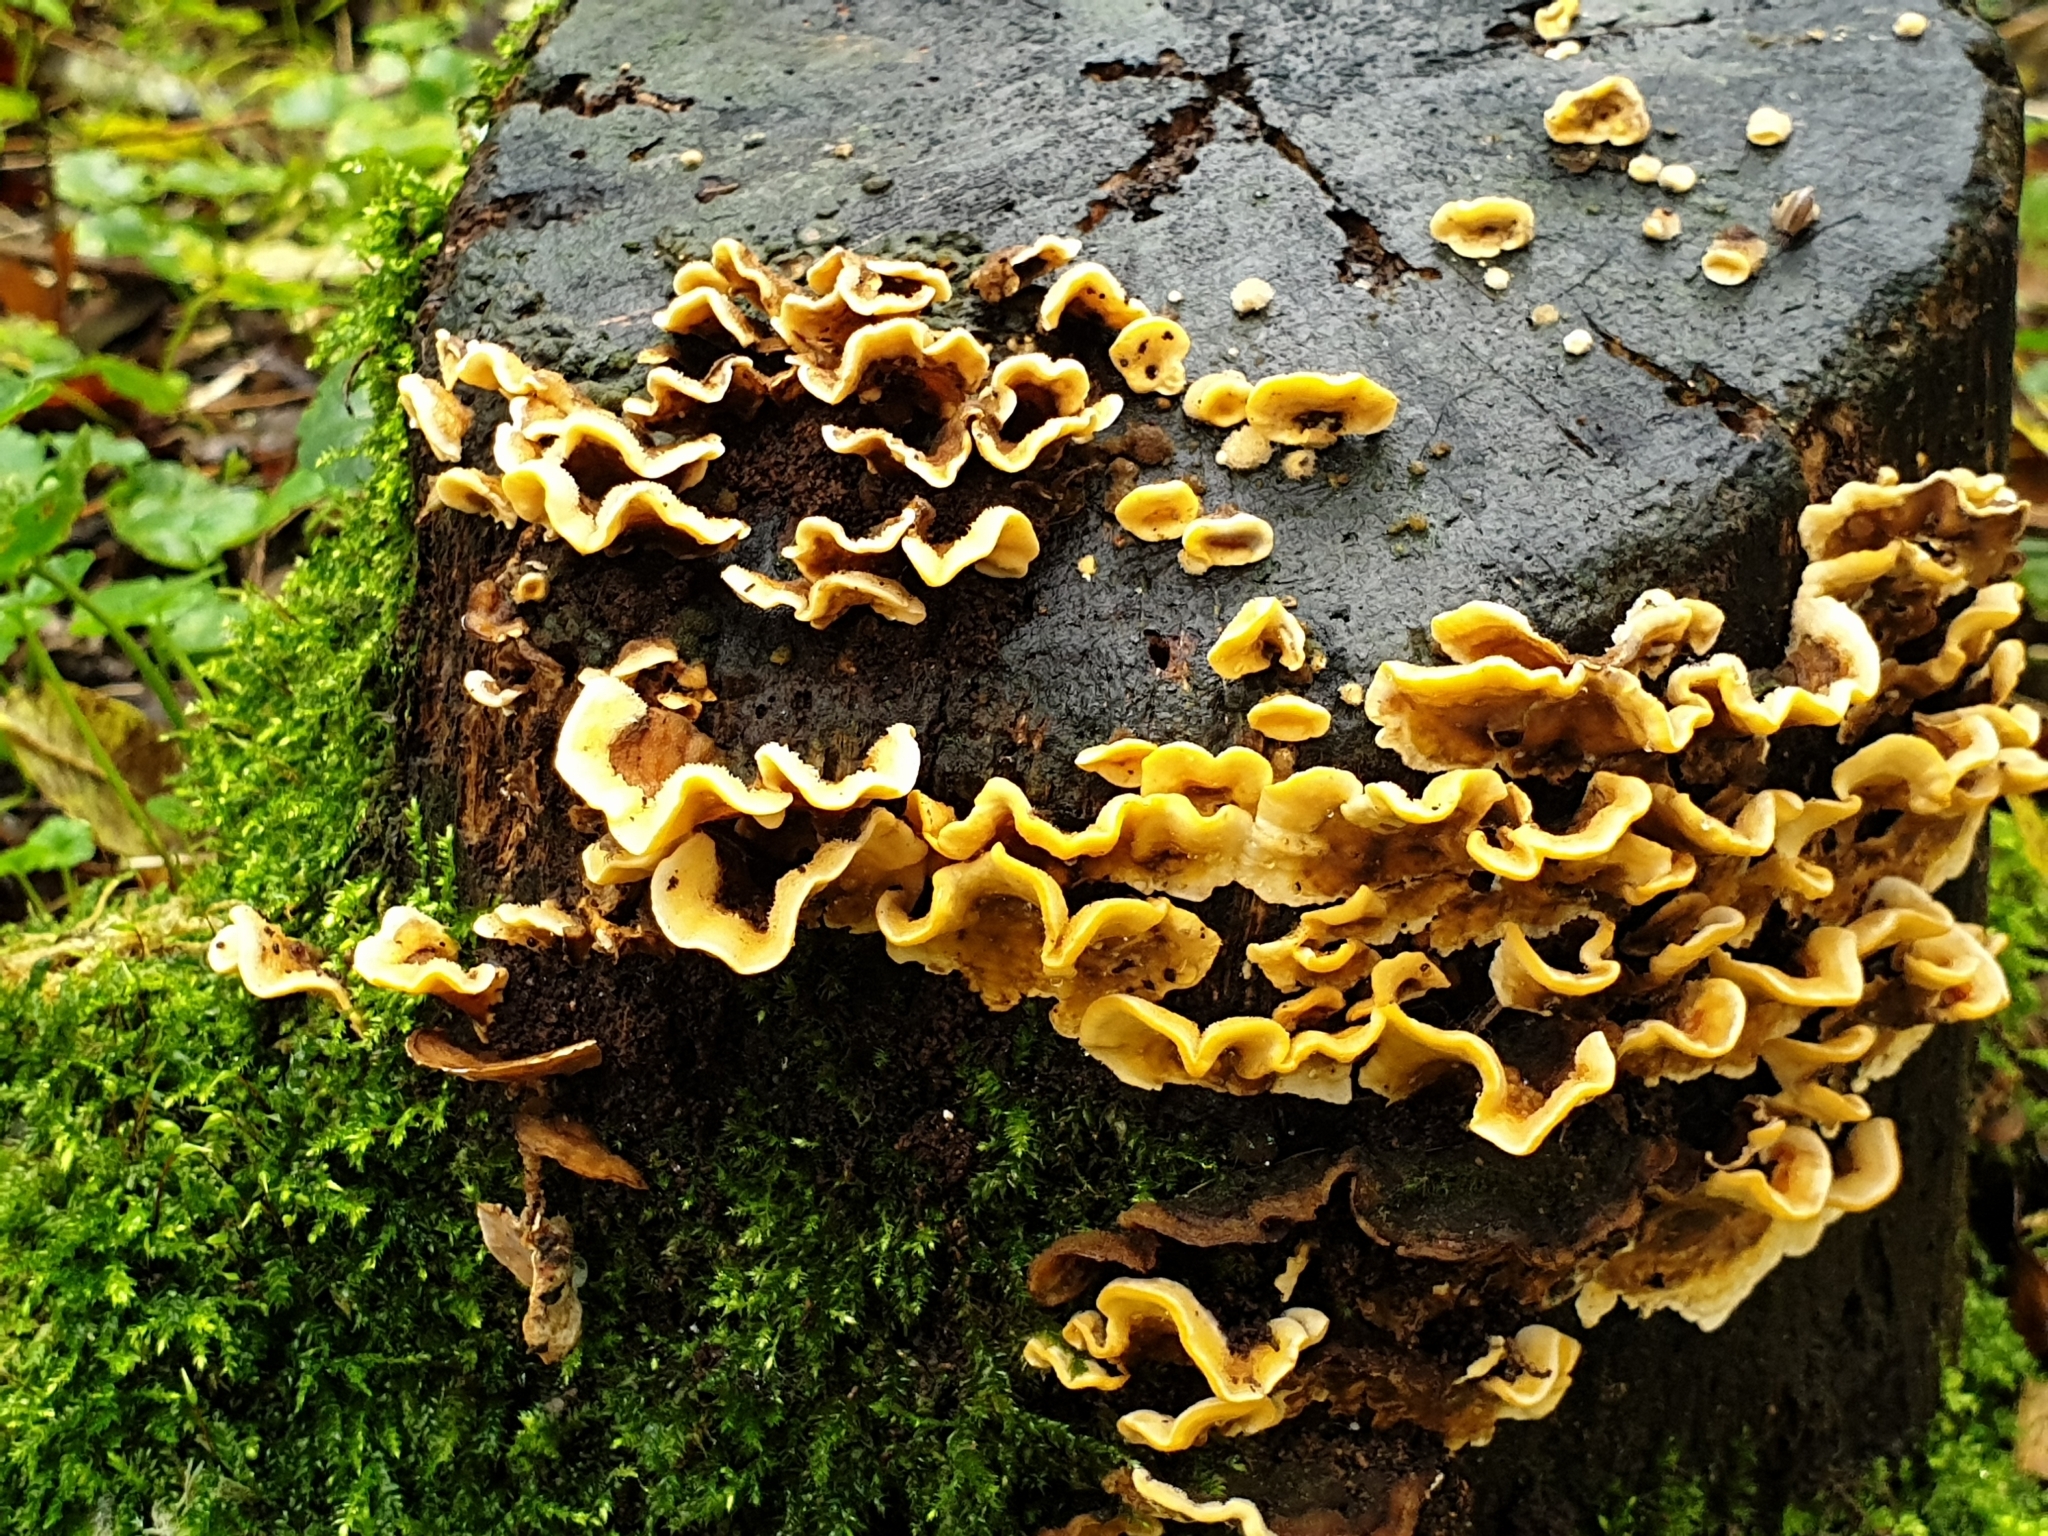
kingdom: Fungi
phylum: Basidiomycota
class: Agaricomycetes
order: Russulales
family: Stereaceae
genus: Stereum
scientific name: Stereum hirsutum
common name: Hairy curtain crust
